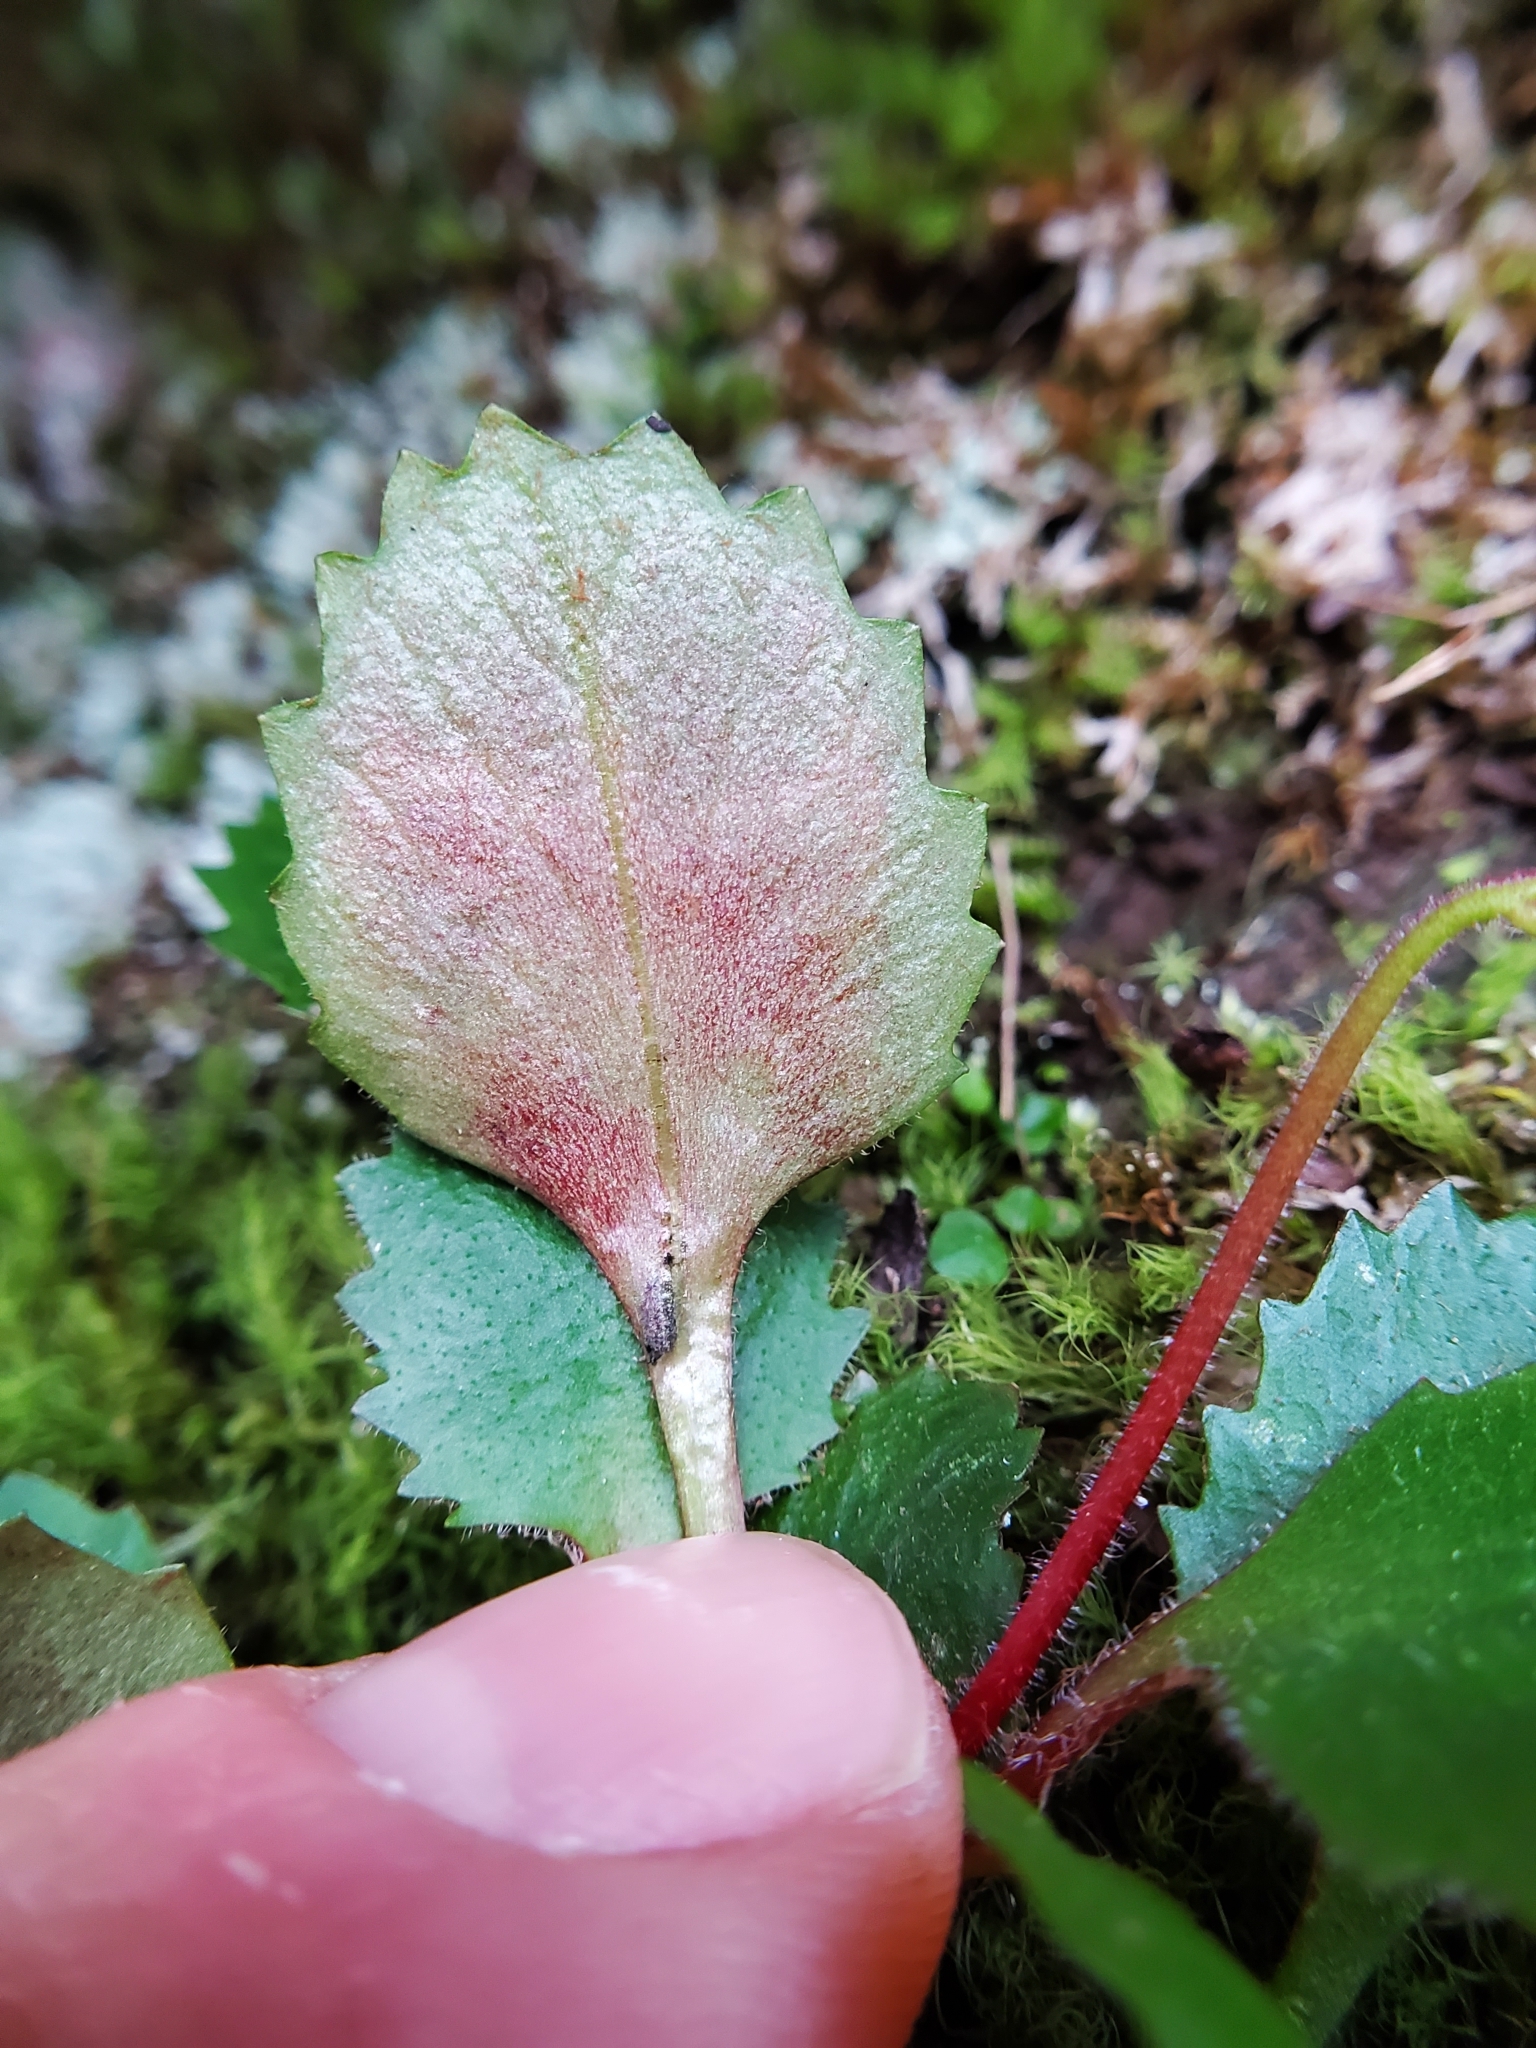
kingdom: Animalia
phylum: Arthropoda
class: Insecta
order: Diptera
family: Agromyzidae
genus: Phytomyza
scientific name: Phytomyza deirdreae
